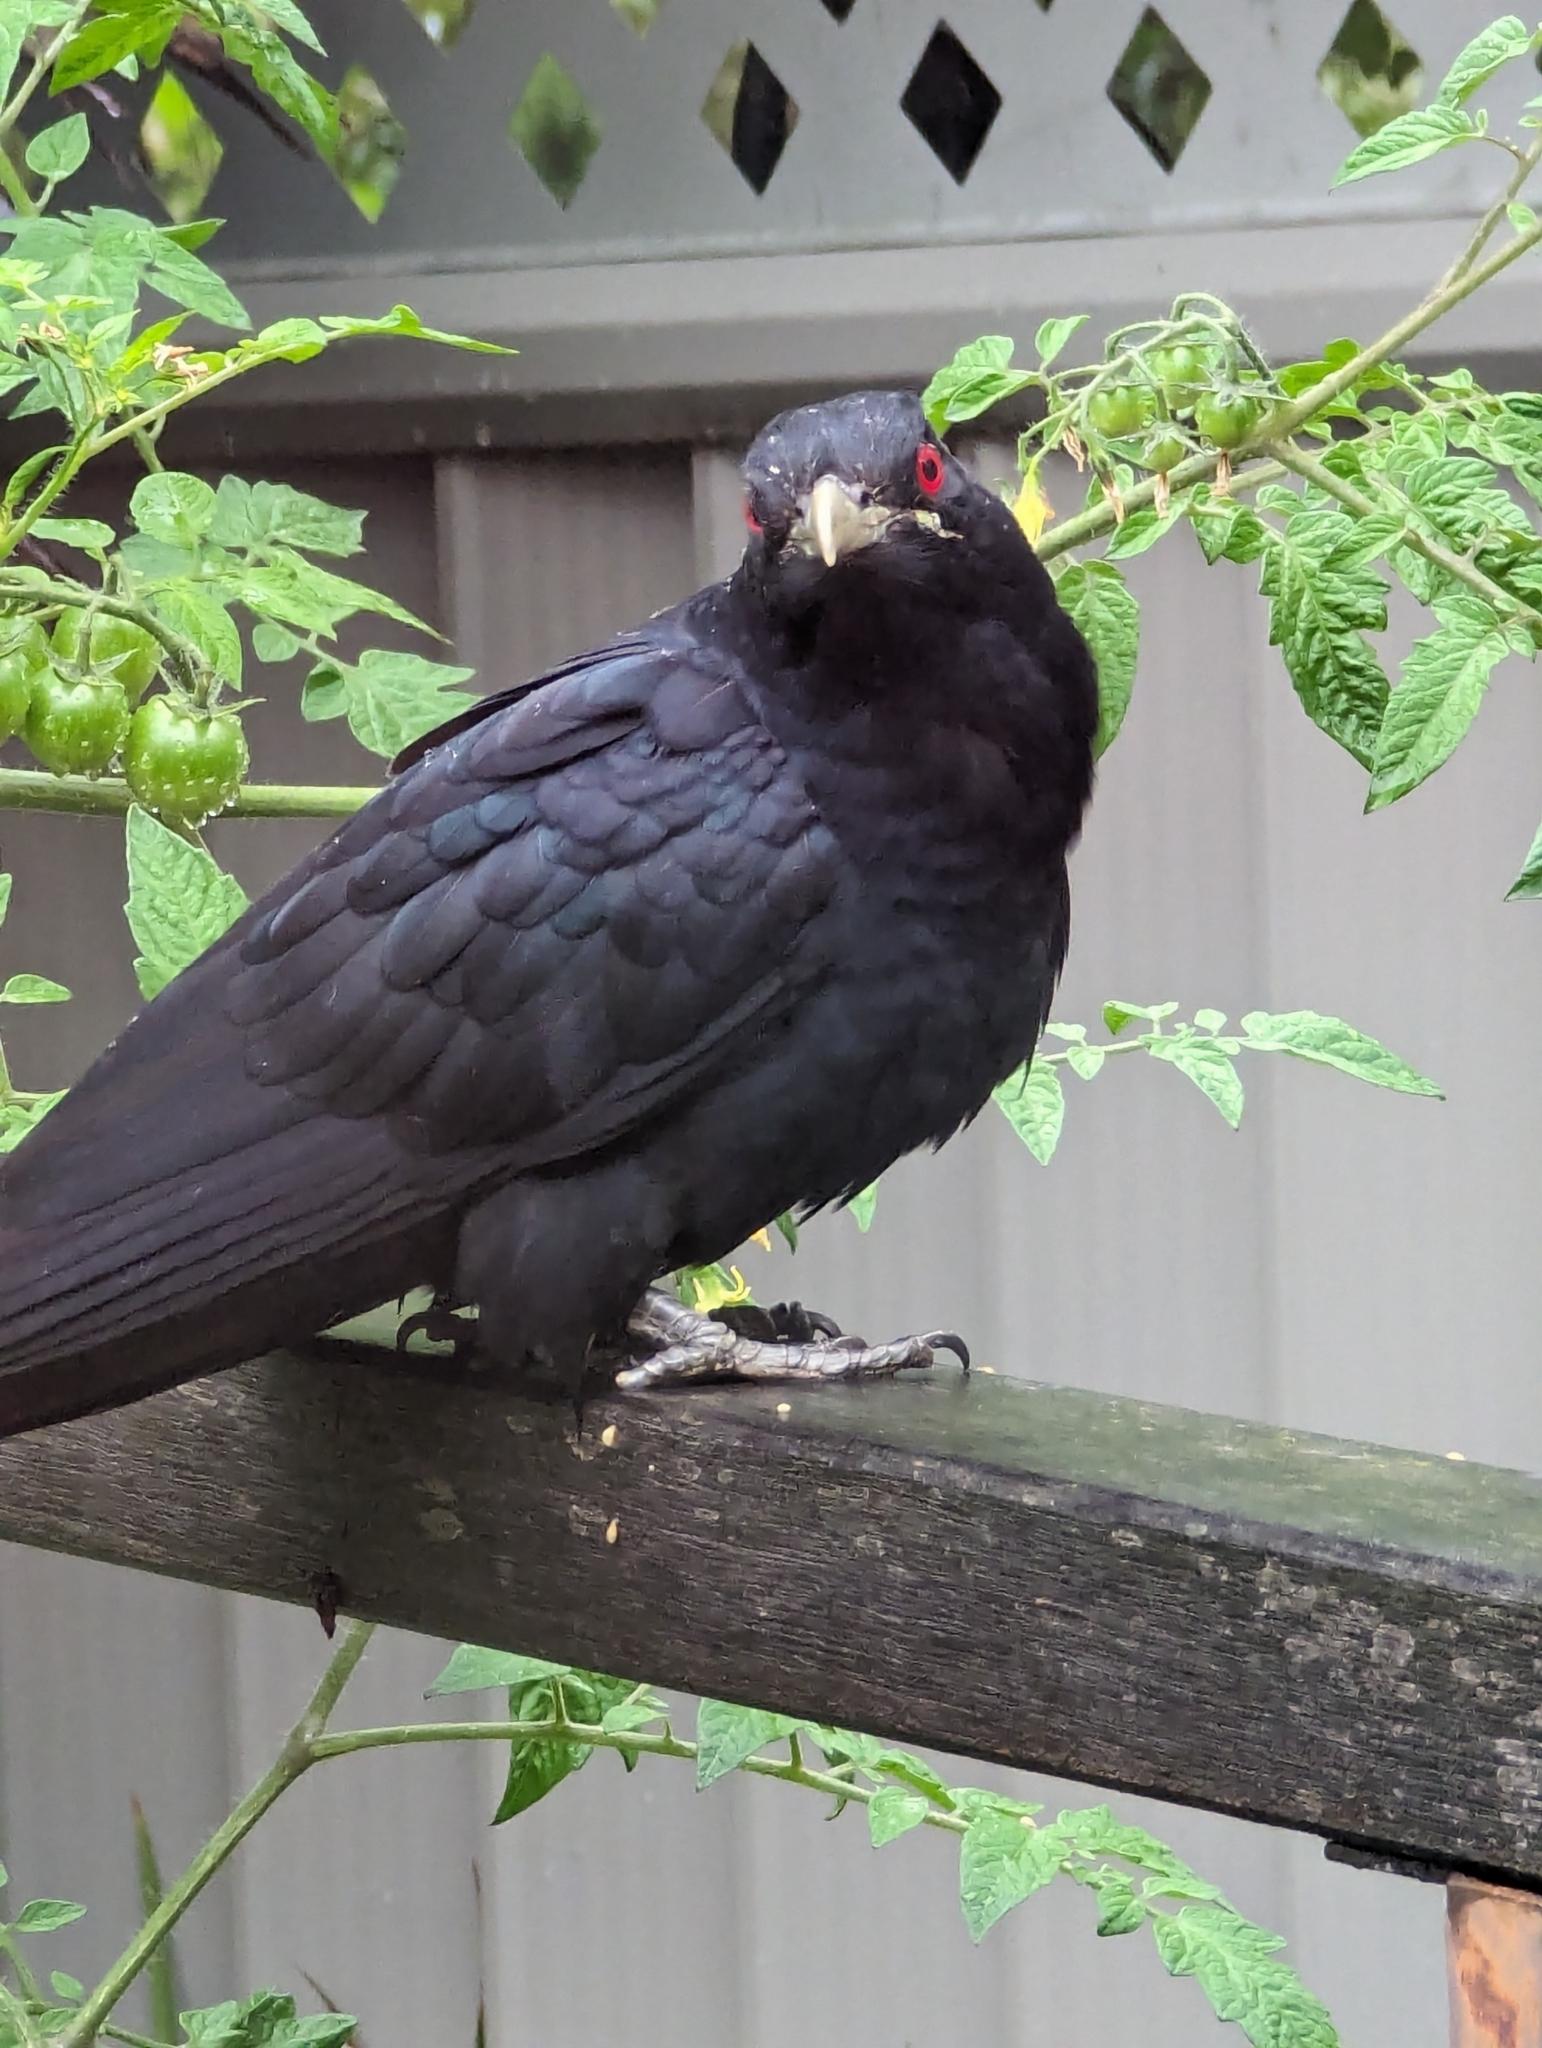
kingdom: Animalia
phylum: Chordata
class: Aves
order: Cuculiformes
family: Cuculidae
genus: Eudynamys
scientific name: Eudynamys orientalis
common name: Pacific koel
